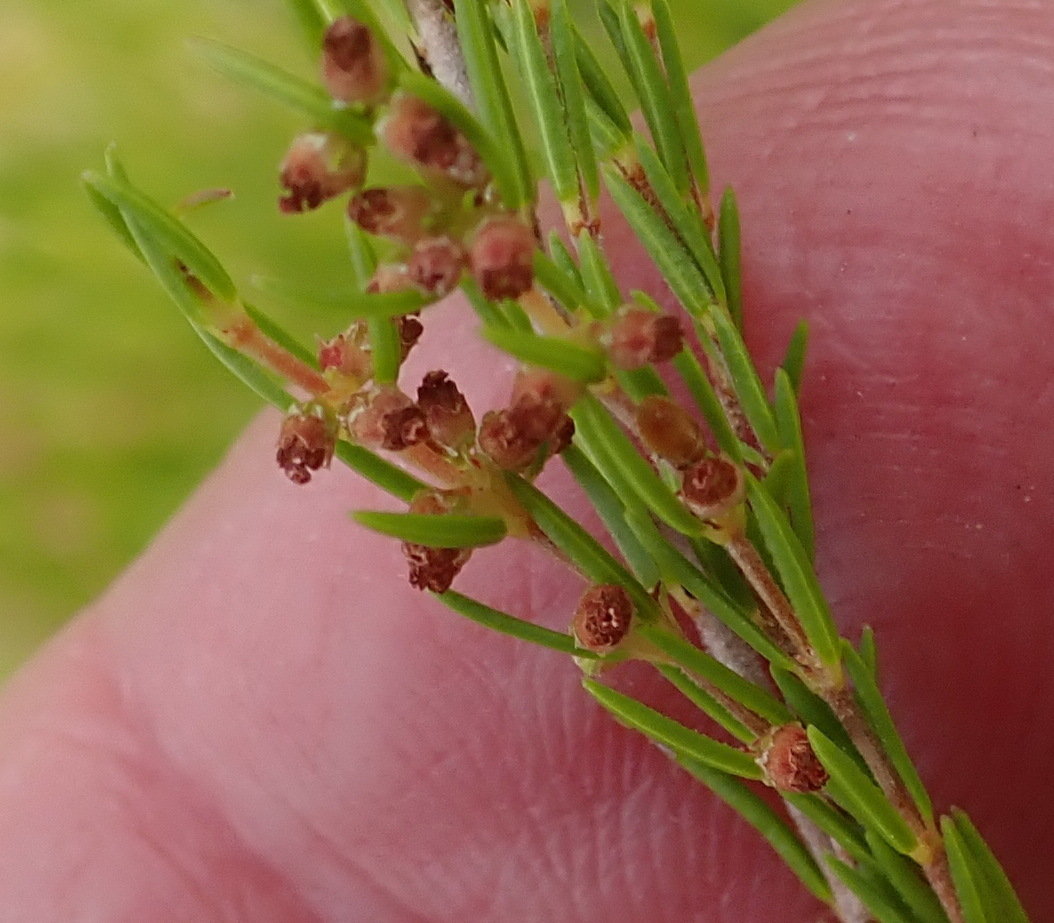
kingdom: Plantae
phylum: Tracheophyta
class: Magnoliopsida
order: Ericales
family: Ericaceae
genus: Erica
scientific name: Erica leucopelta
